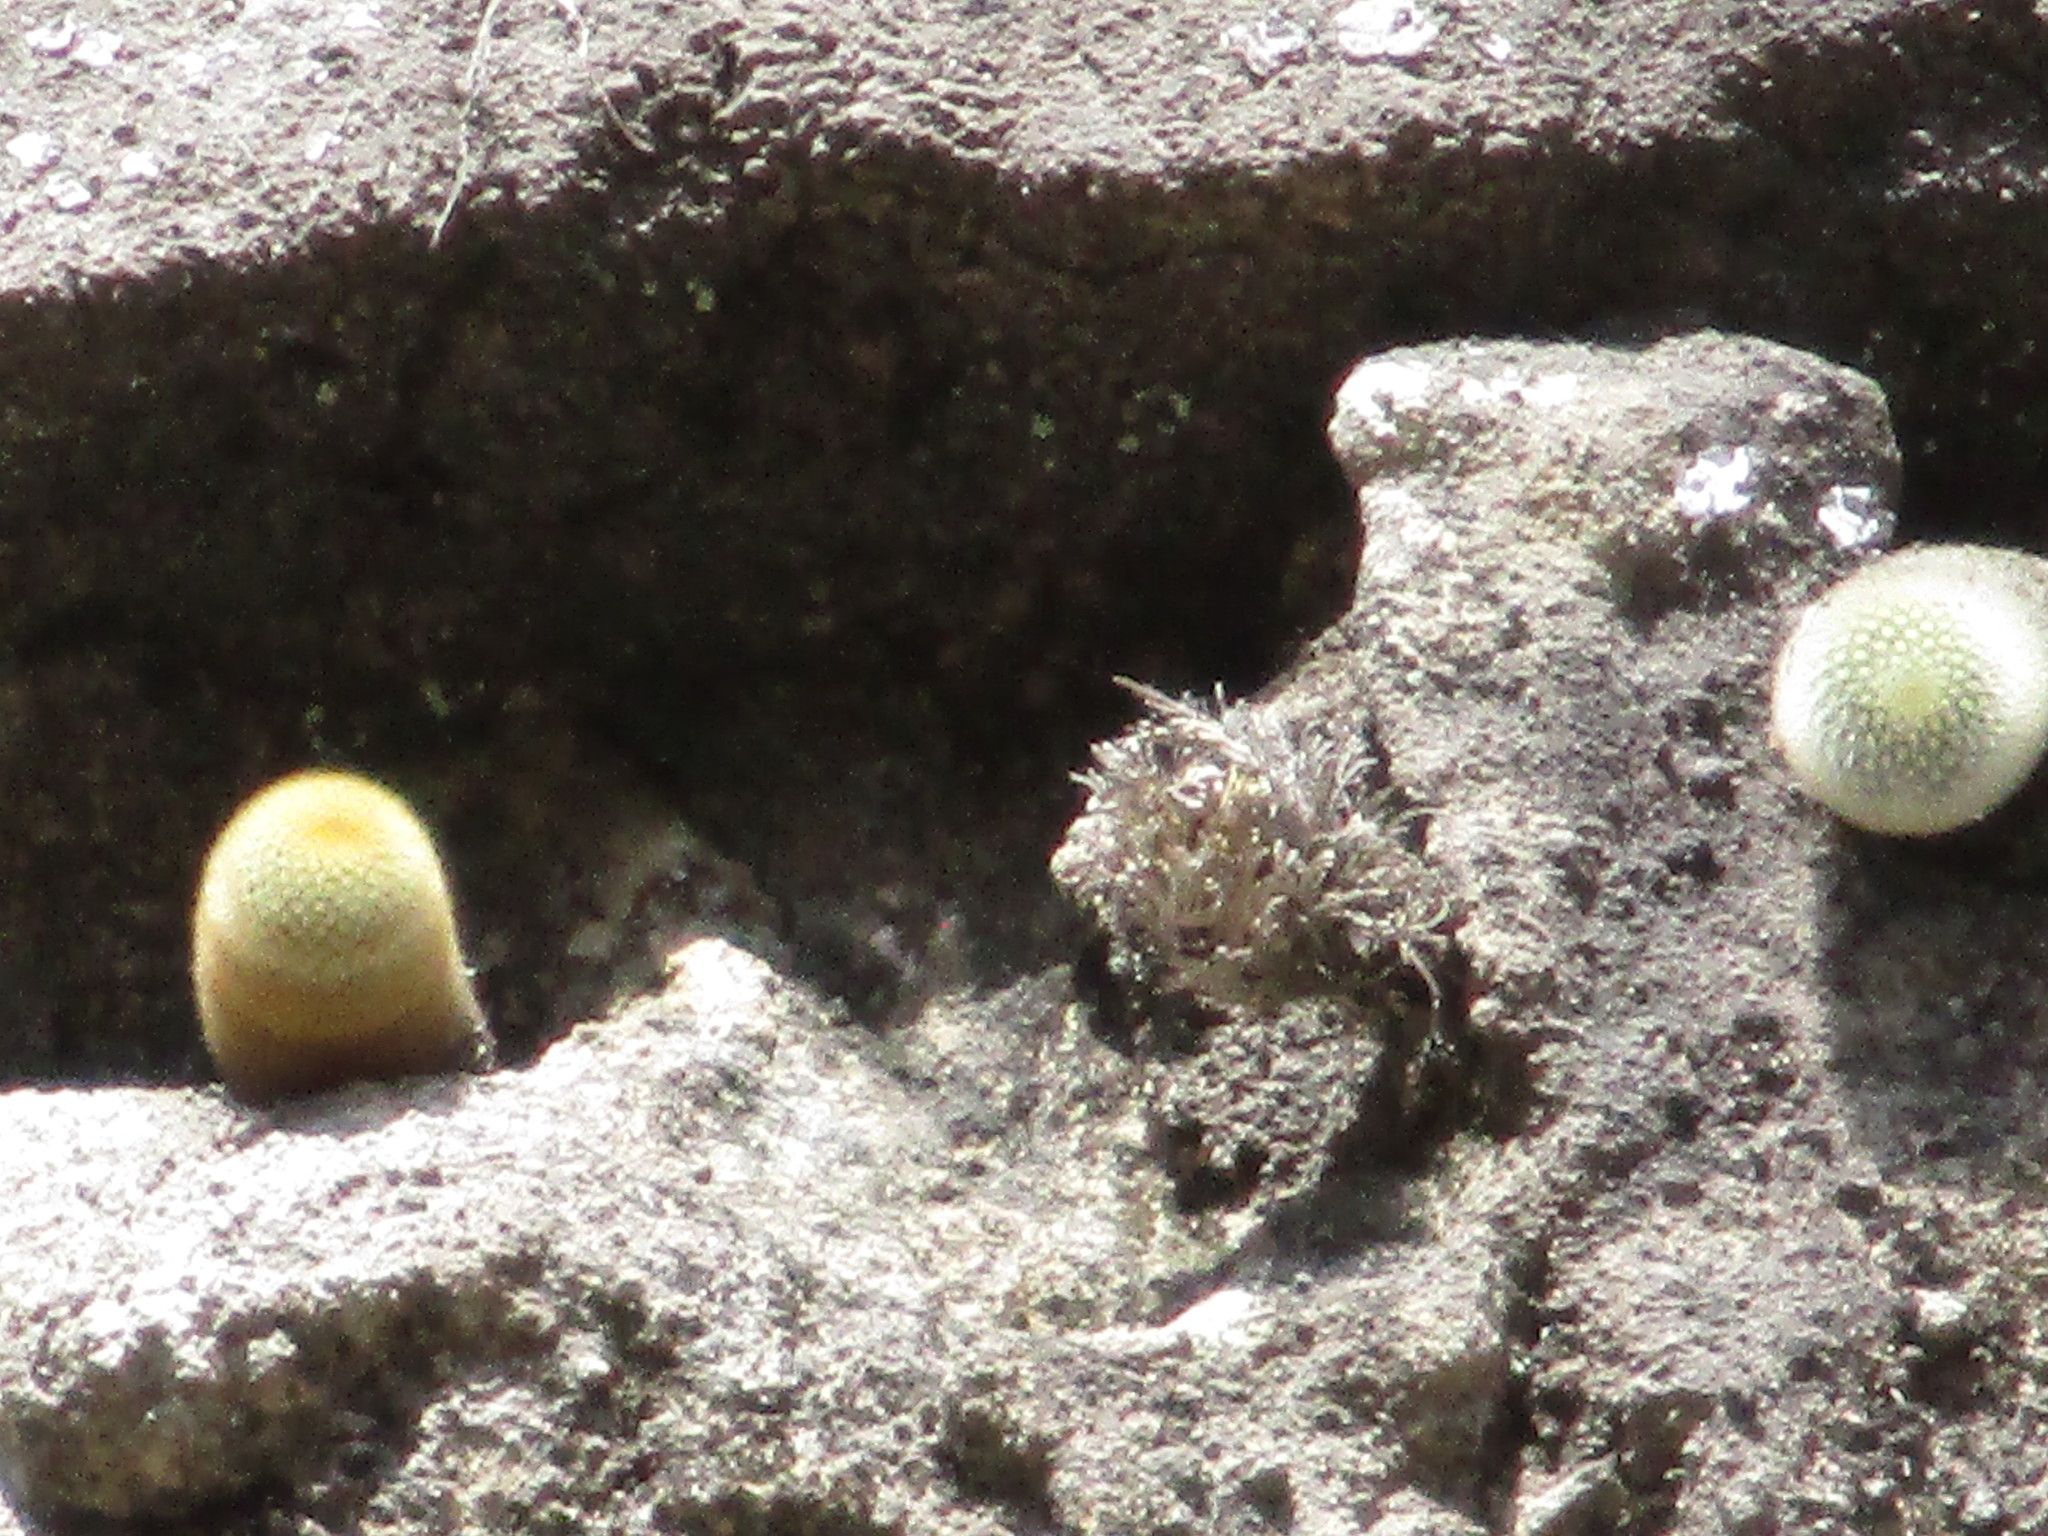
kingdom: Plantae
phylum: Tracheophyta
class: Magnoliopsida
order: Caryophyllales
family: Cactaceae
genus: Mammillaria
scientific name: Mammillaria spinosissima
